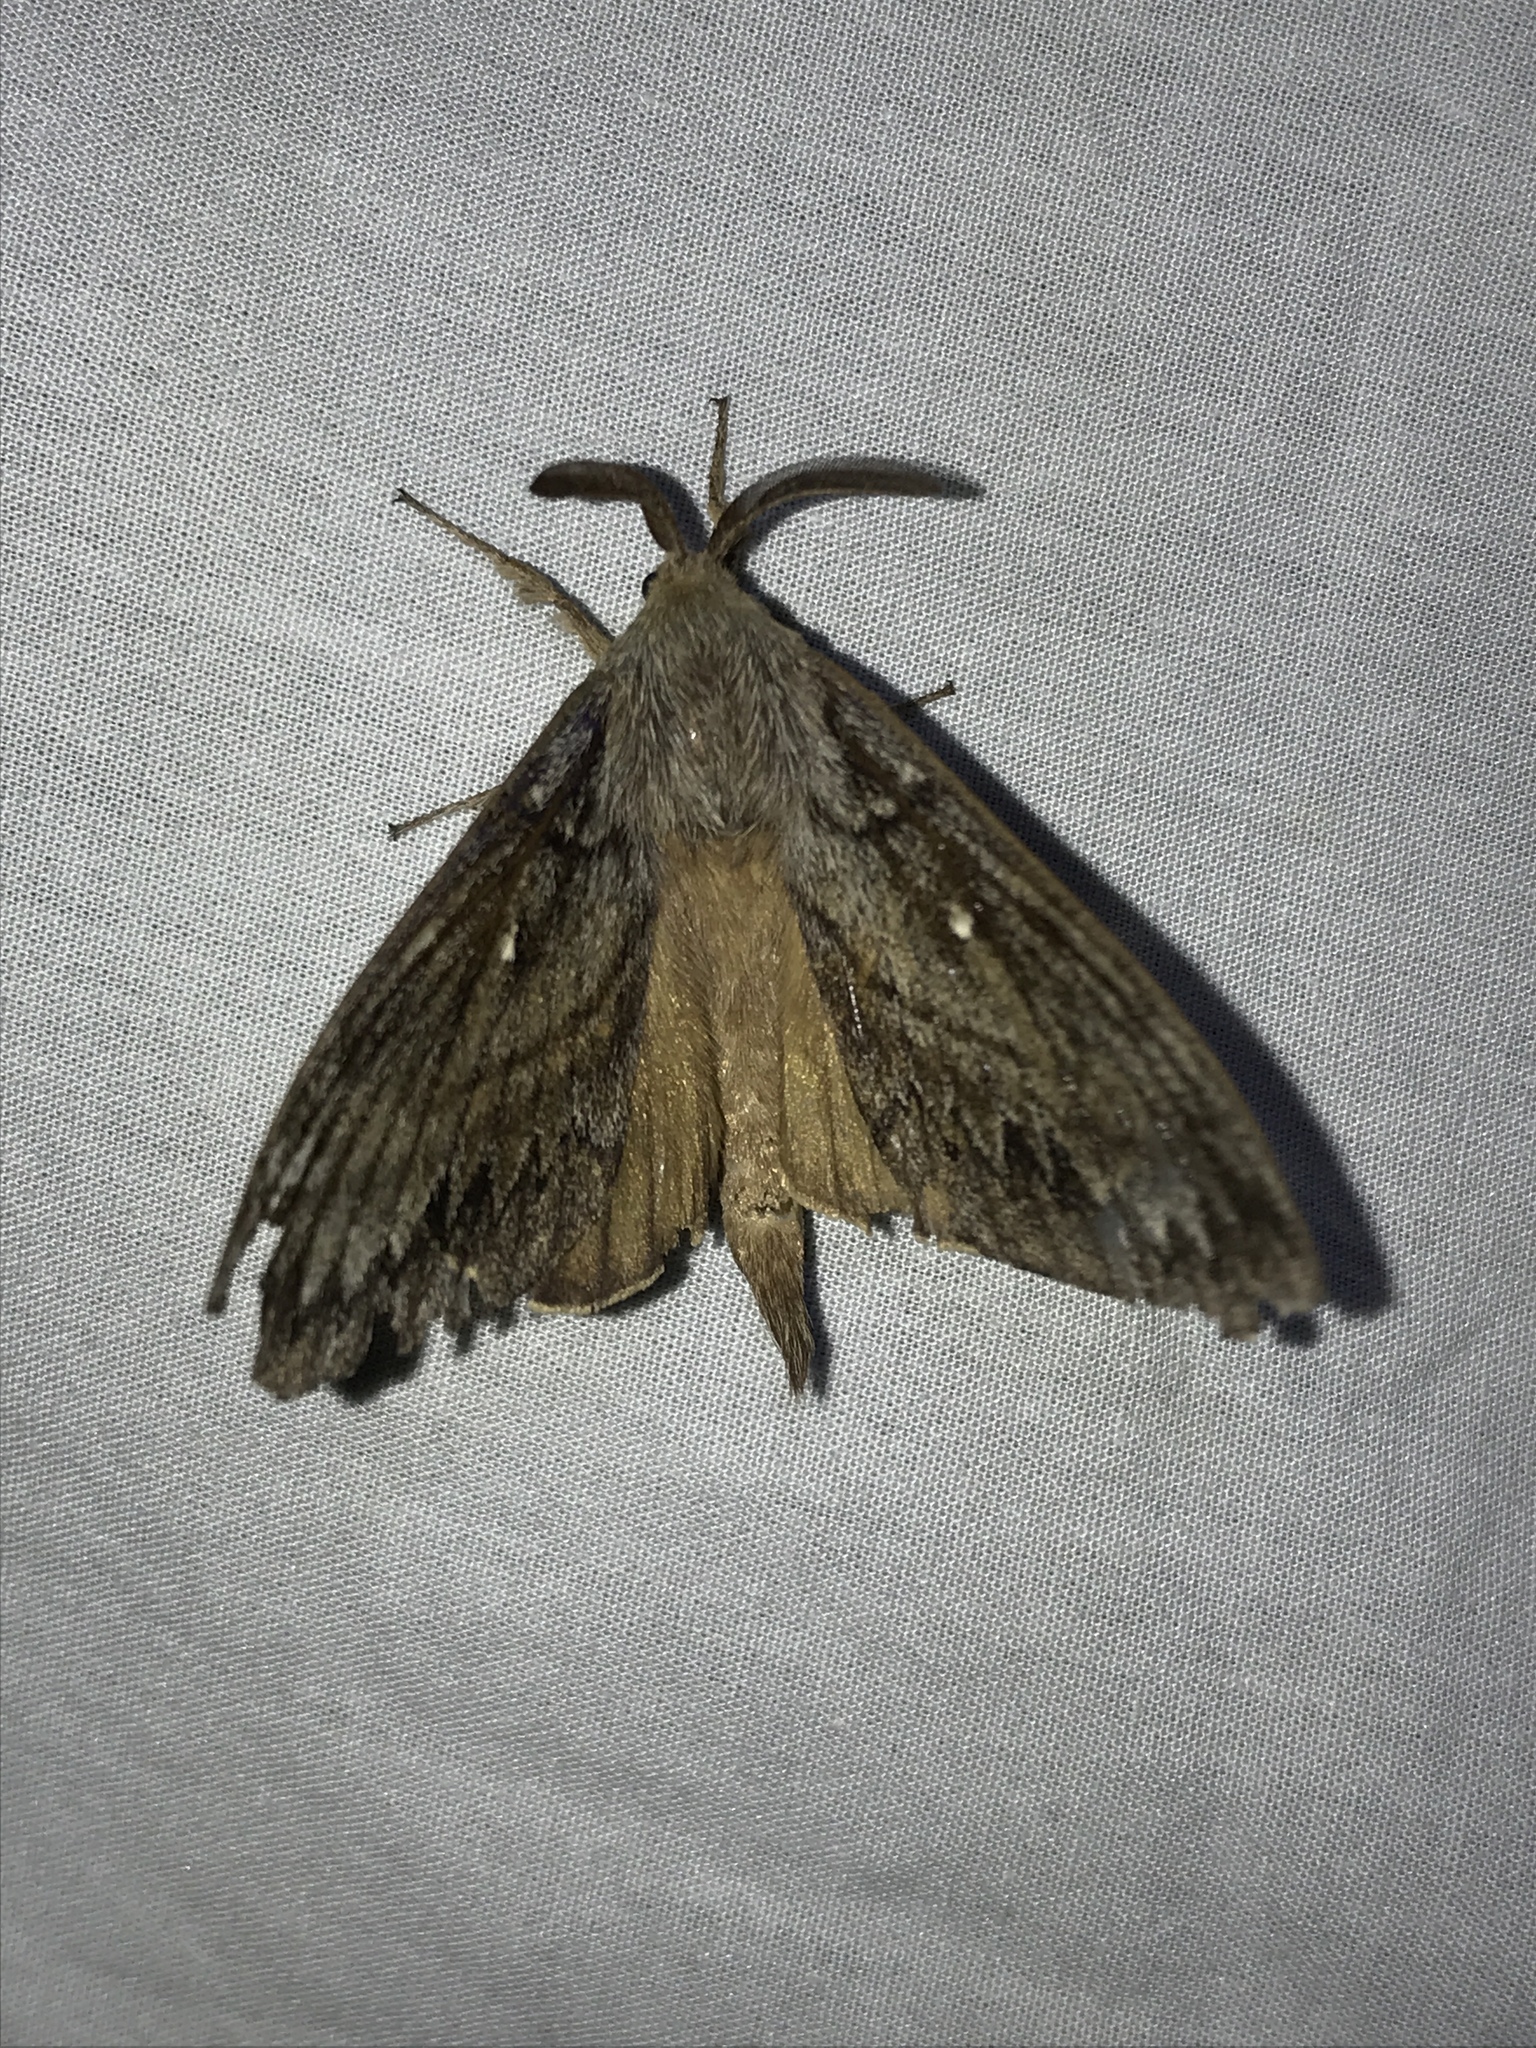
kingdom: Animalia
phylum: Arthropoda
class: Insecta
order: Lepidoptera
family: Lasiocampidae
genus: Gloveria
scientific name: Gloveria arizonensis
